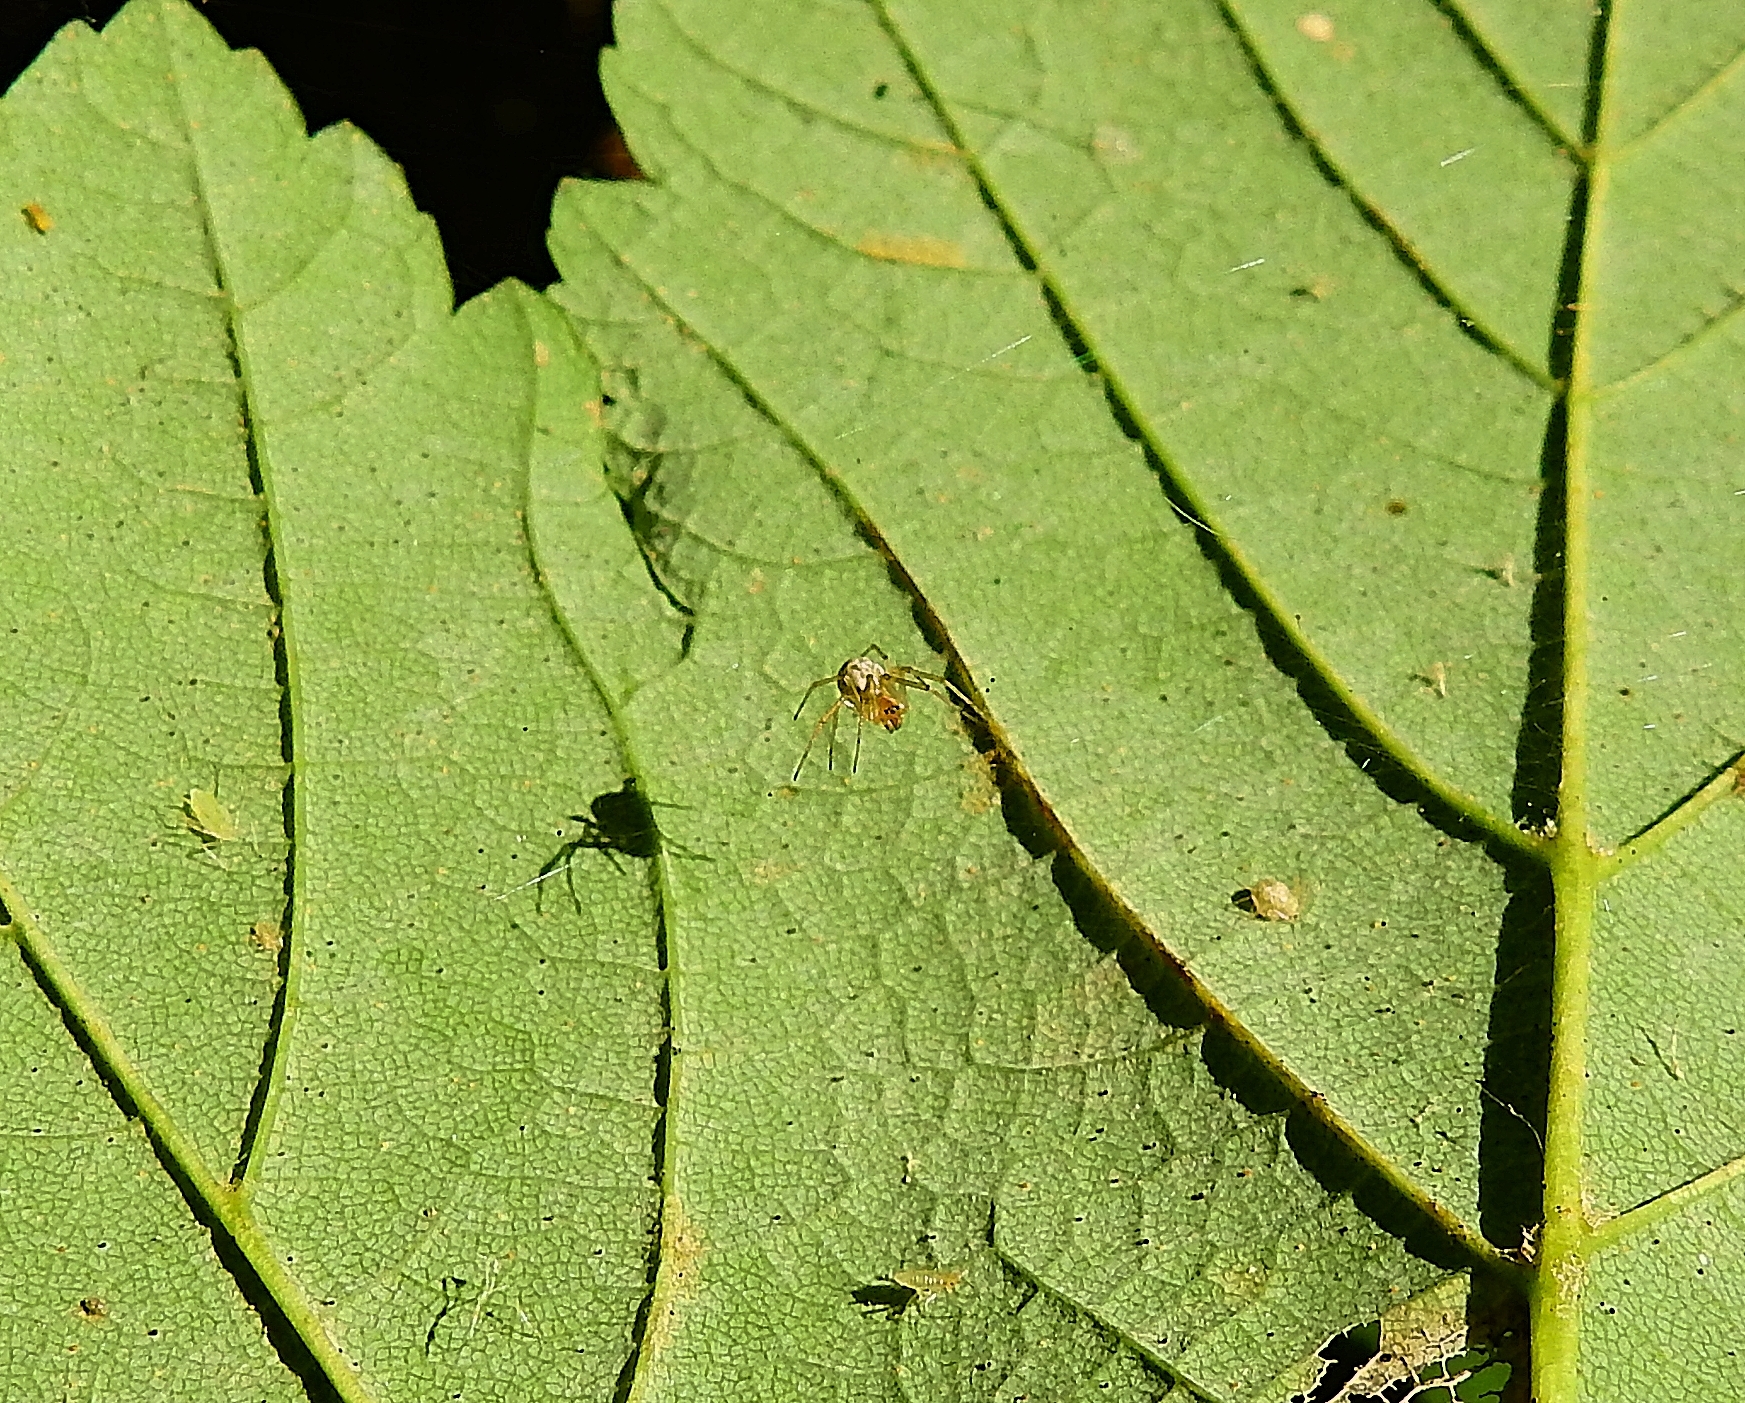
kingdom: Animalia
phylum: Arthropoda
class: Arachnida
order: Araneae
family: Linyphiidae
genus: Linyphia
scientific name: Linyphia triangularis
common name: Money spider
